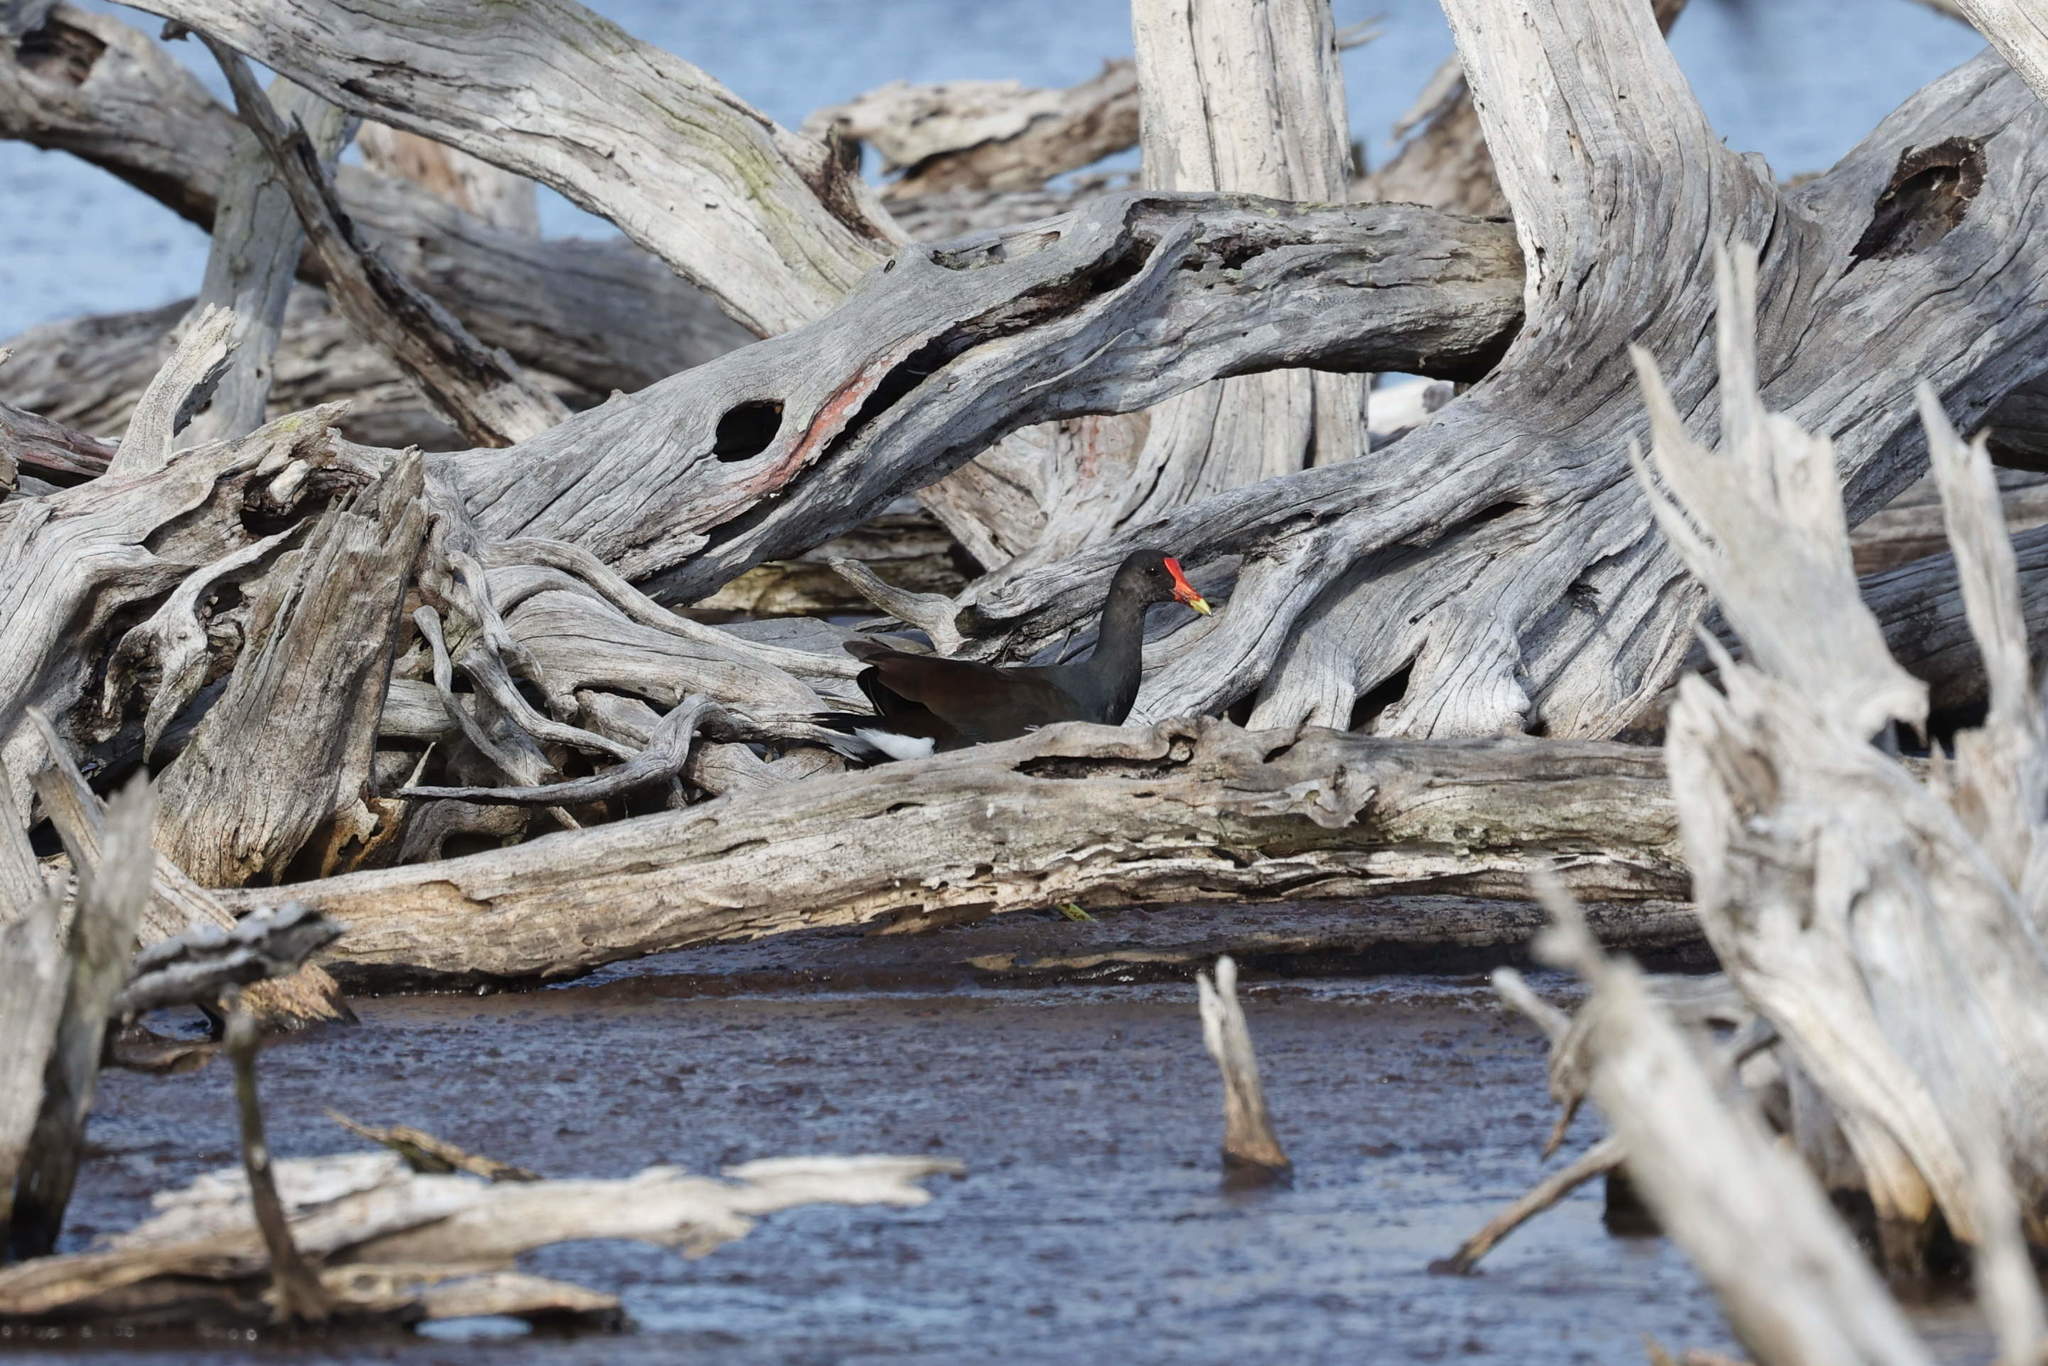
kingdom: Animalia
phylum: Chordata
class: Aves
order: Gruiformes
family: Rallidae
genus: Gallinula
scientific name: Gallinula chloropus
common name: Common moorhen
